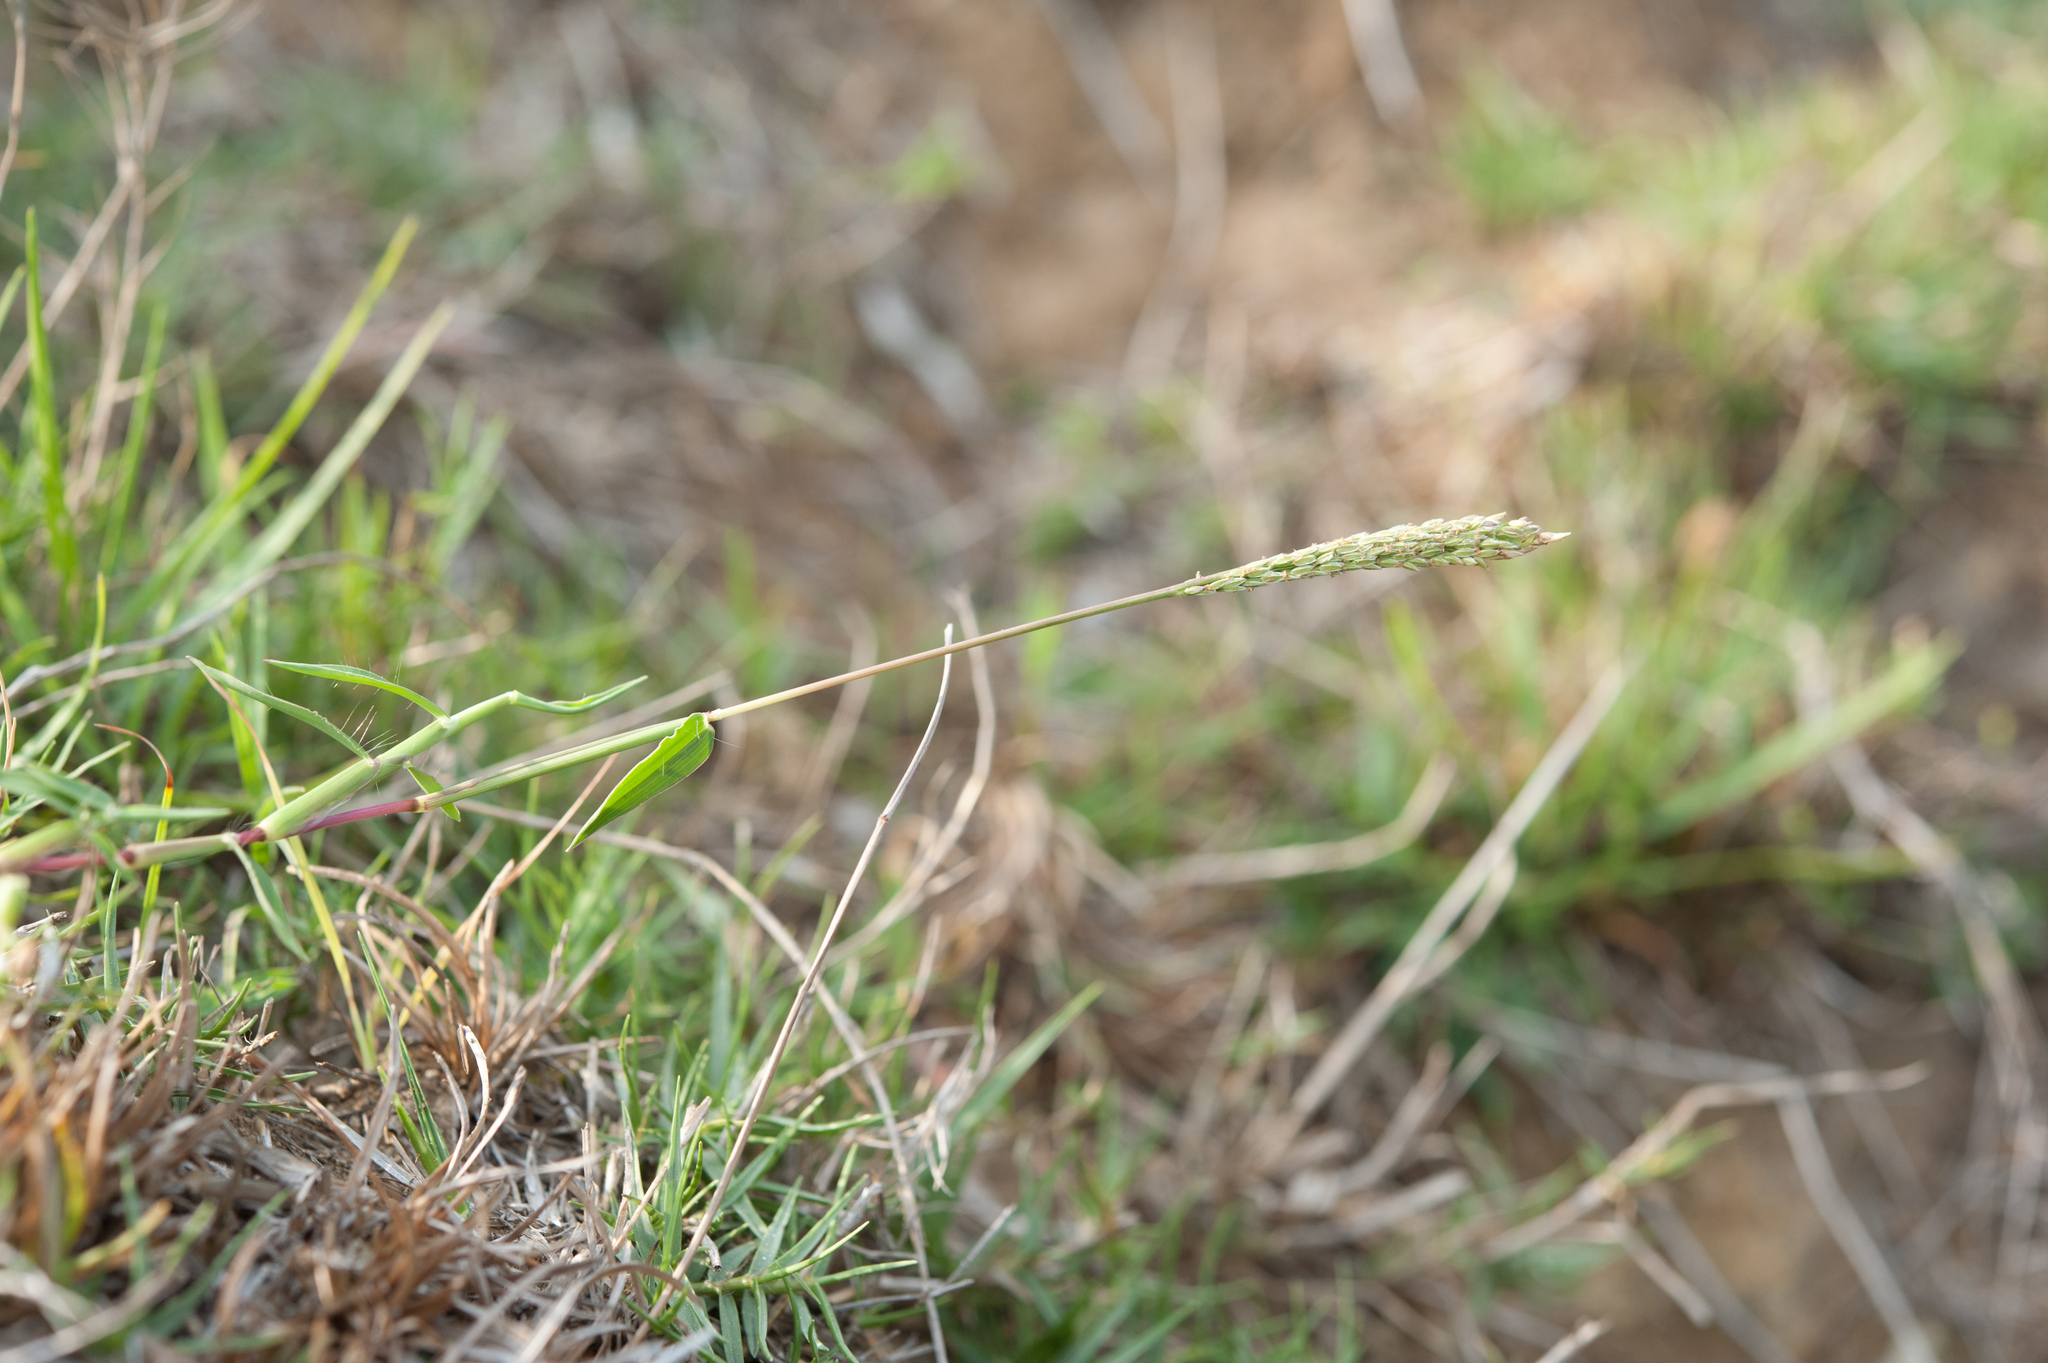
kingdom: Plantae
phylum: Tracheophyta
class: Liliopsida
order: Poales
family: Poaceae
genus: Digitaria
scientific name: Digitaria ciliaris
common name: Tropical finger-grass
